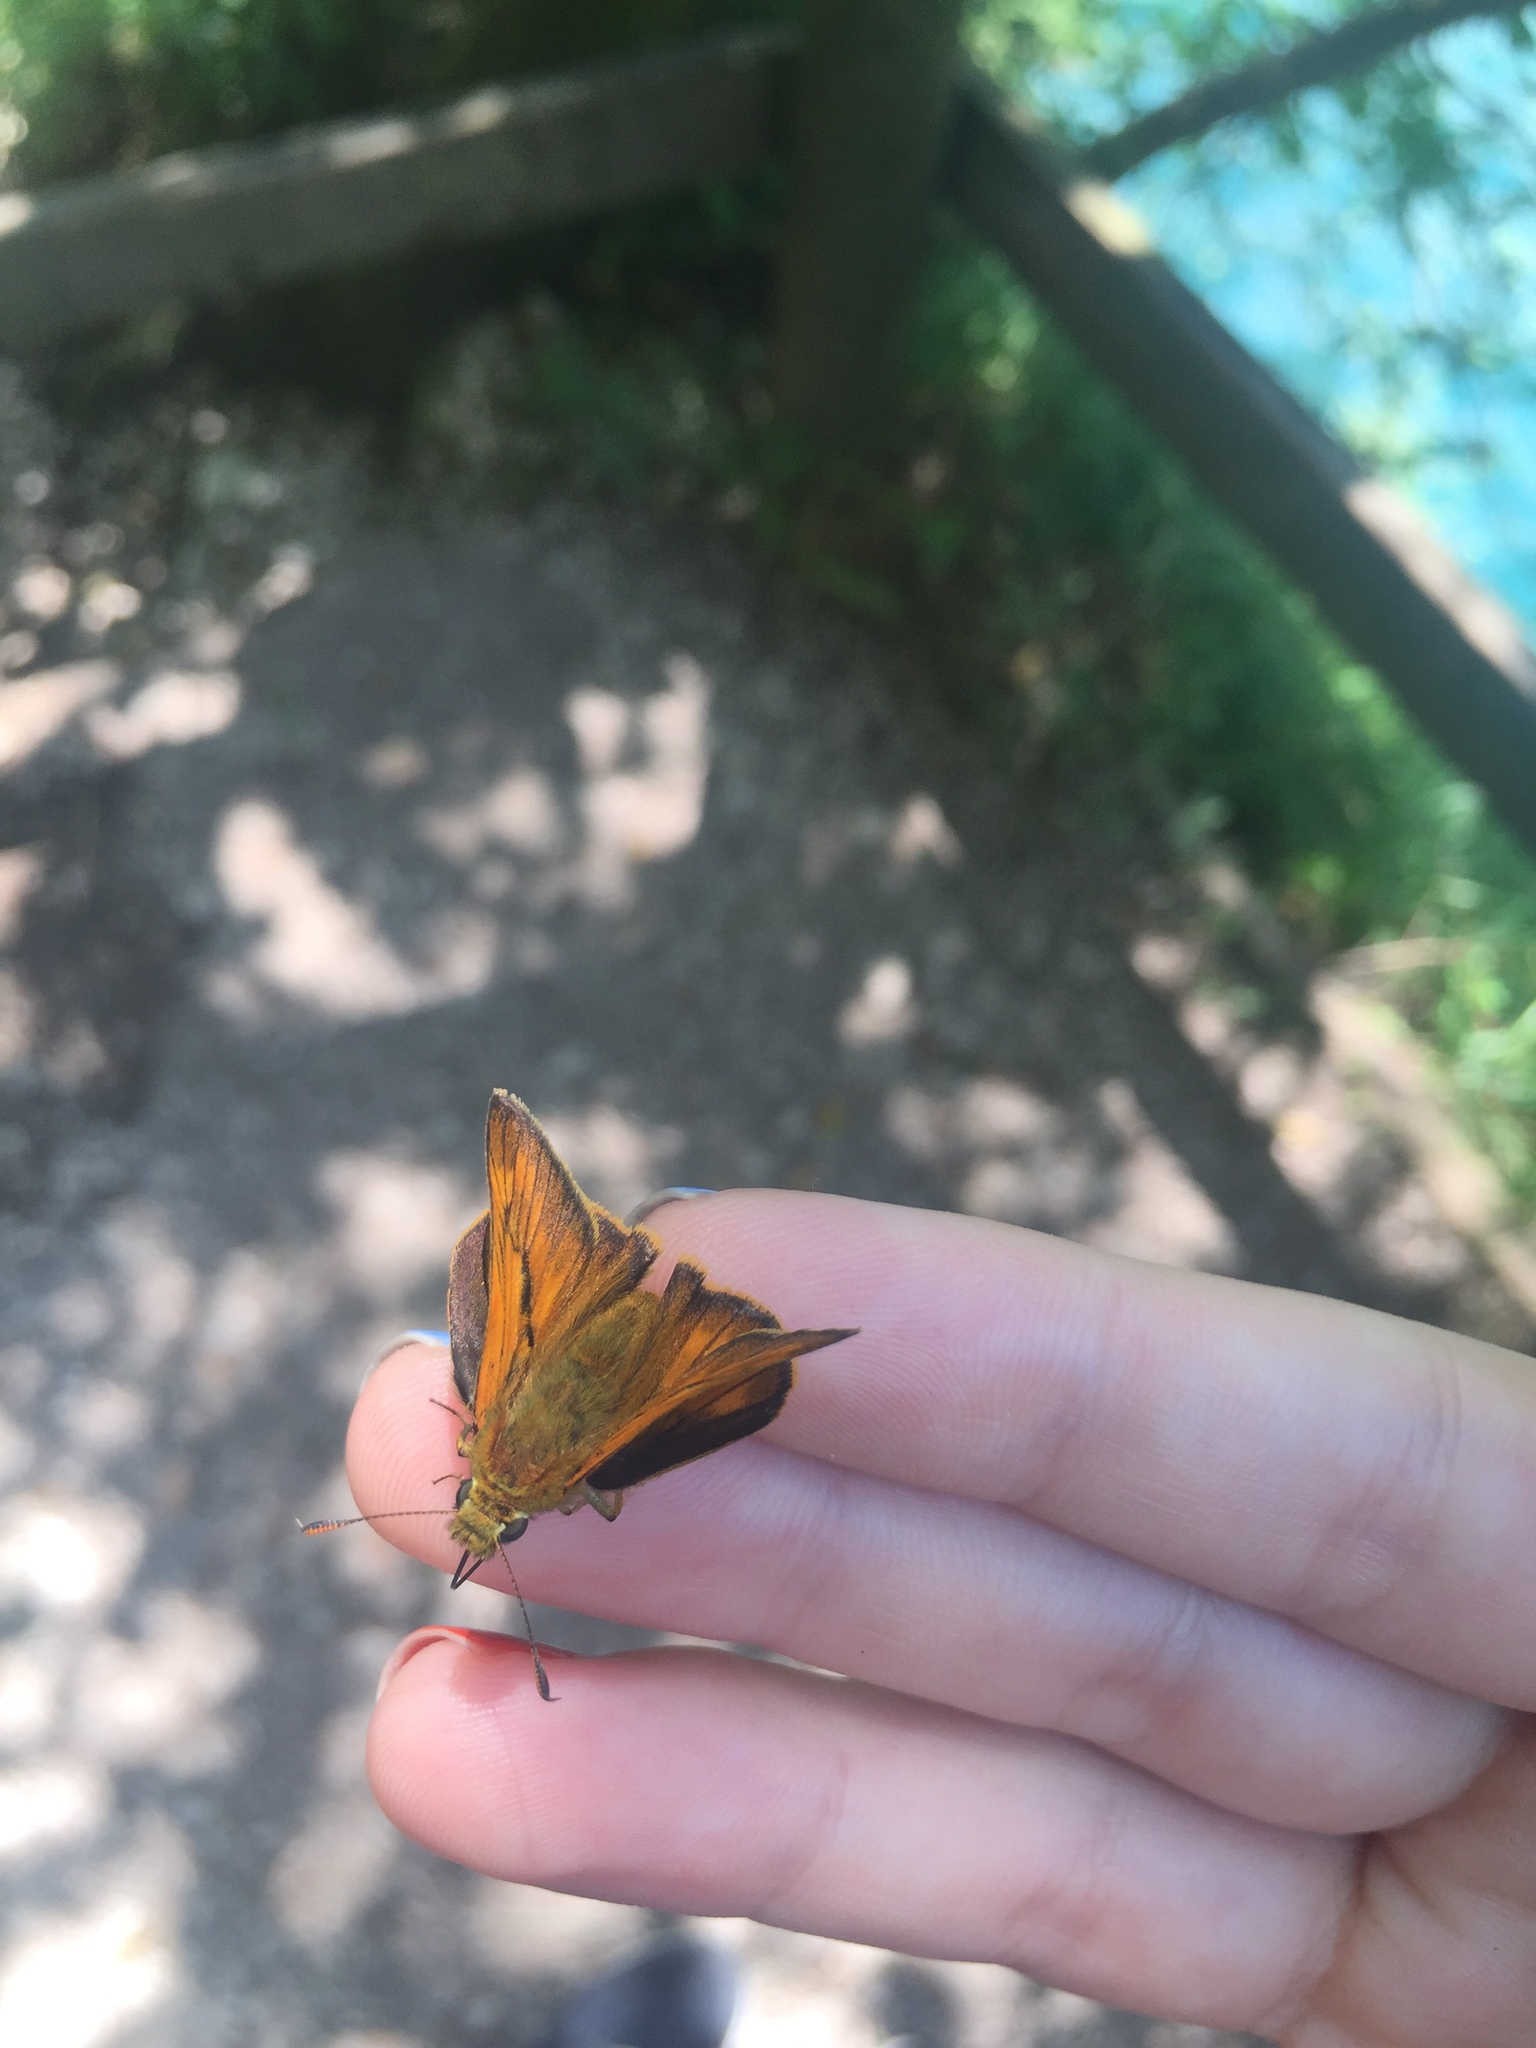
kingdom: Animalia
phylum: Arthropoda
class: Insecta
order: Lepidoptera
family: Hesperiidae
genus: Ochlodes
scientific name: Ochlodes venata
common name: Large skipper
